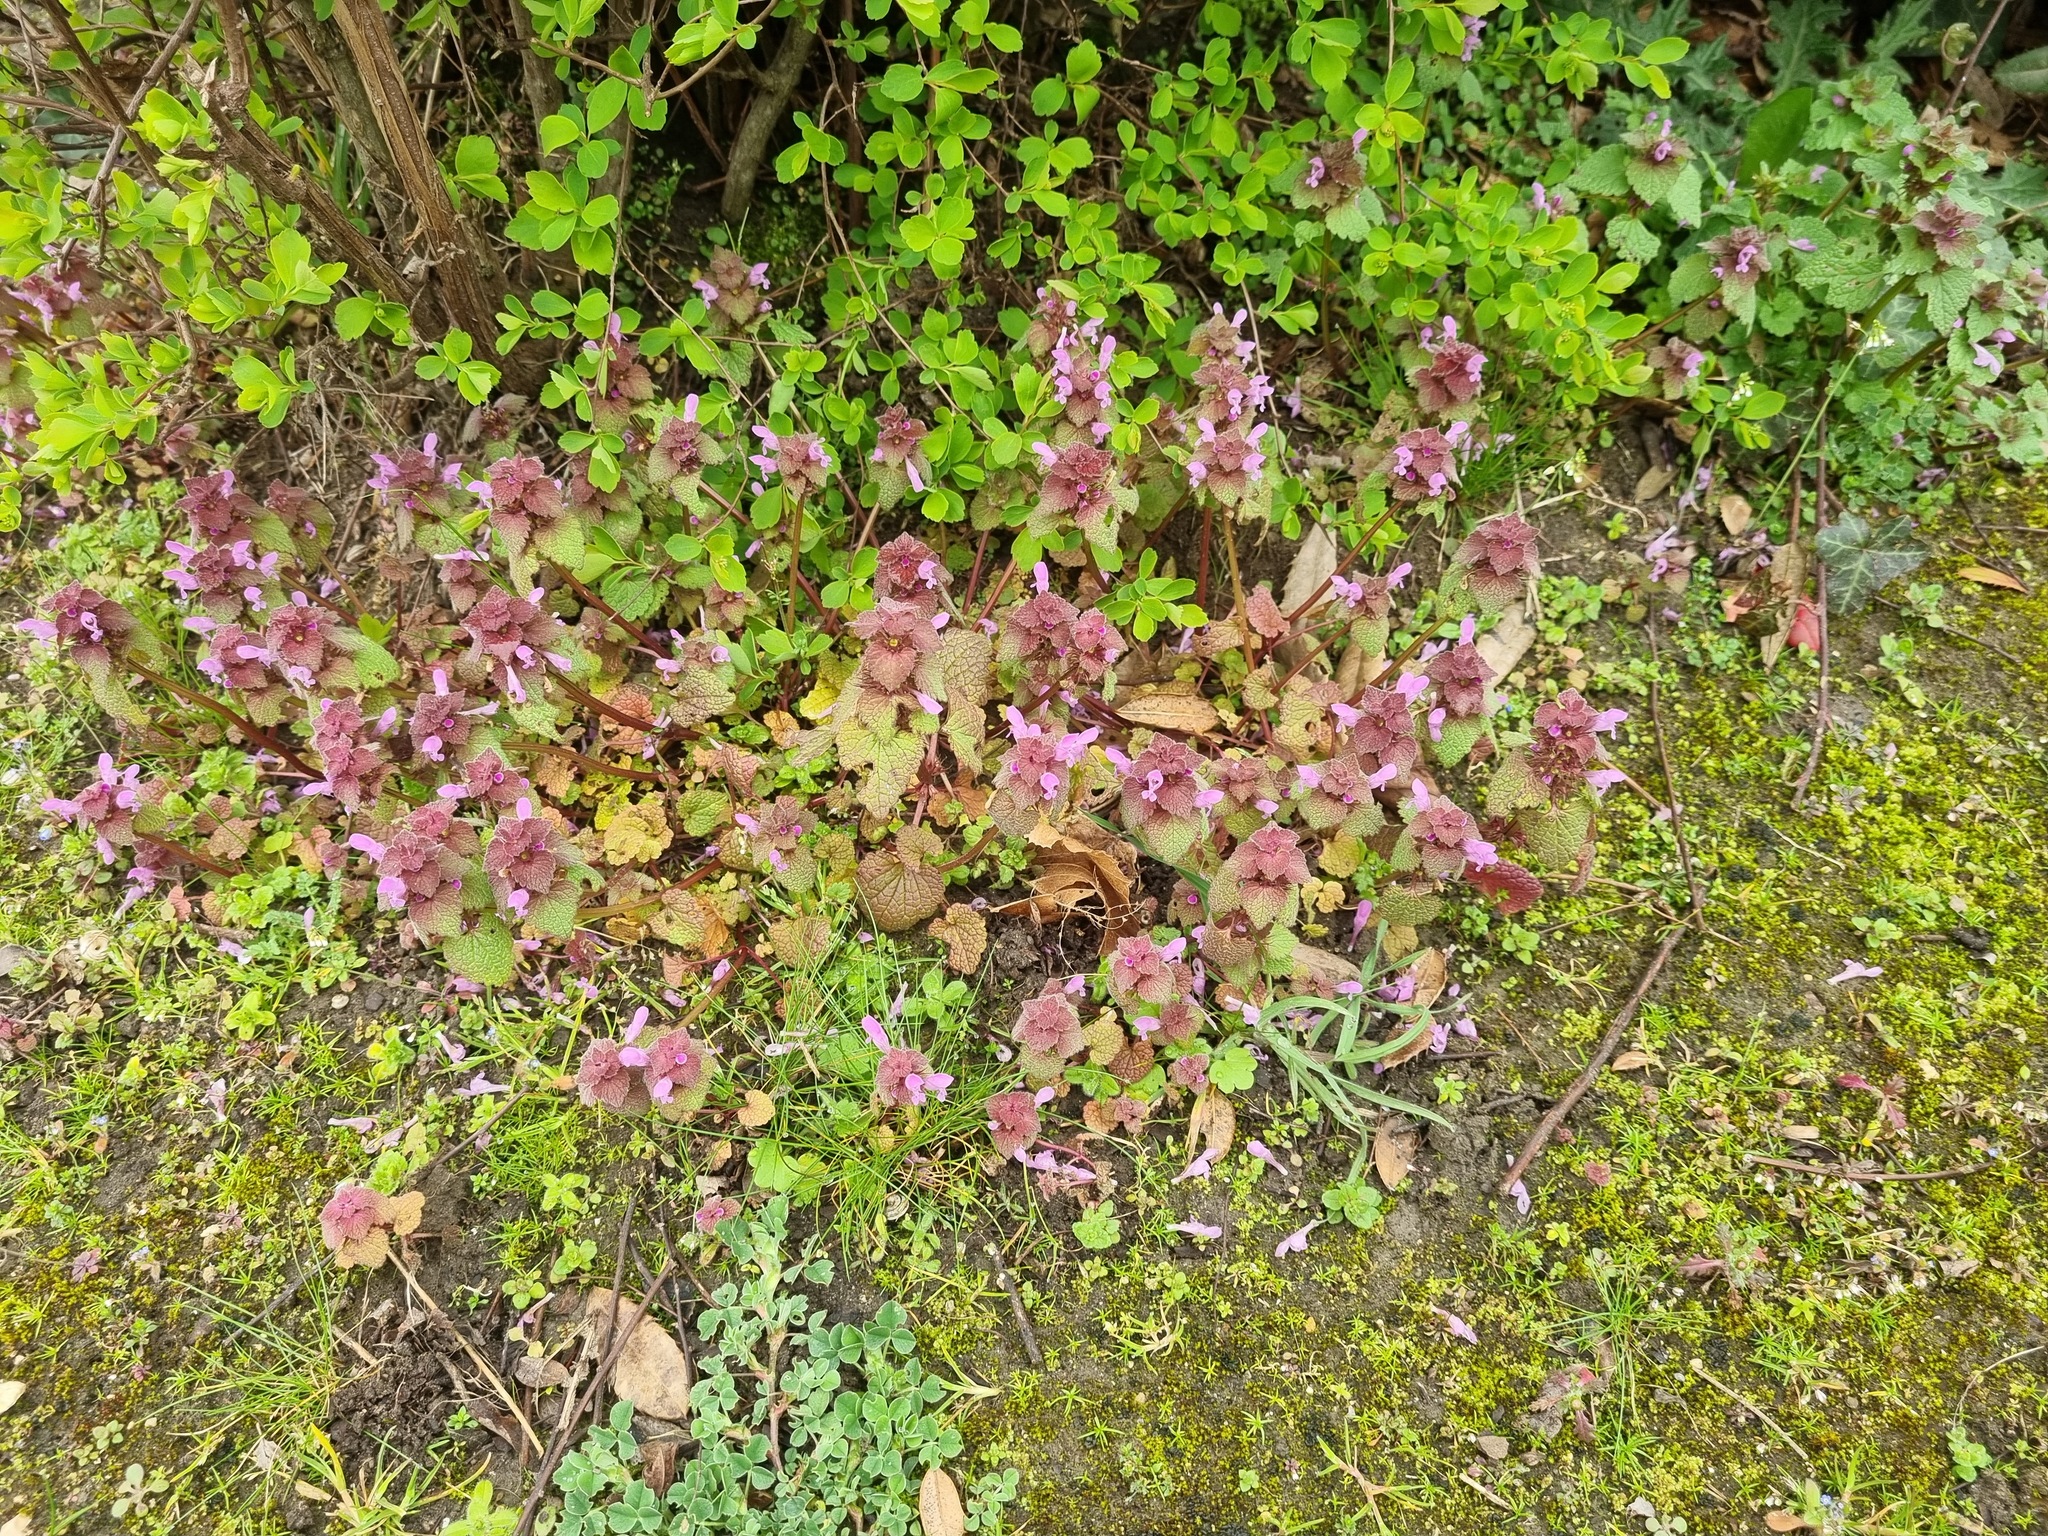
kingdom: Plantae
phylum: Tracheophyta
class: Magnoliopsida
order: Lamiales
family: Lamiaceae
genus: Lamium
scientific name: Lamium purpureum
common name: Red dead-nettle
